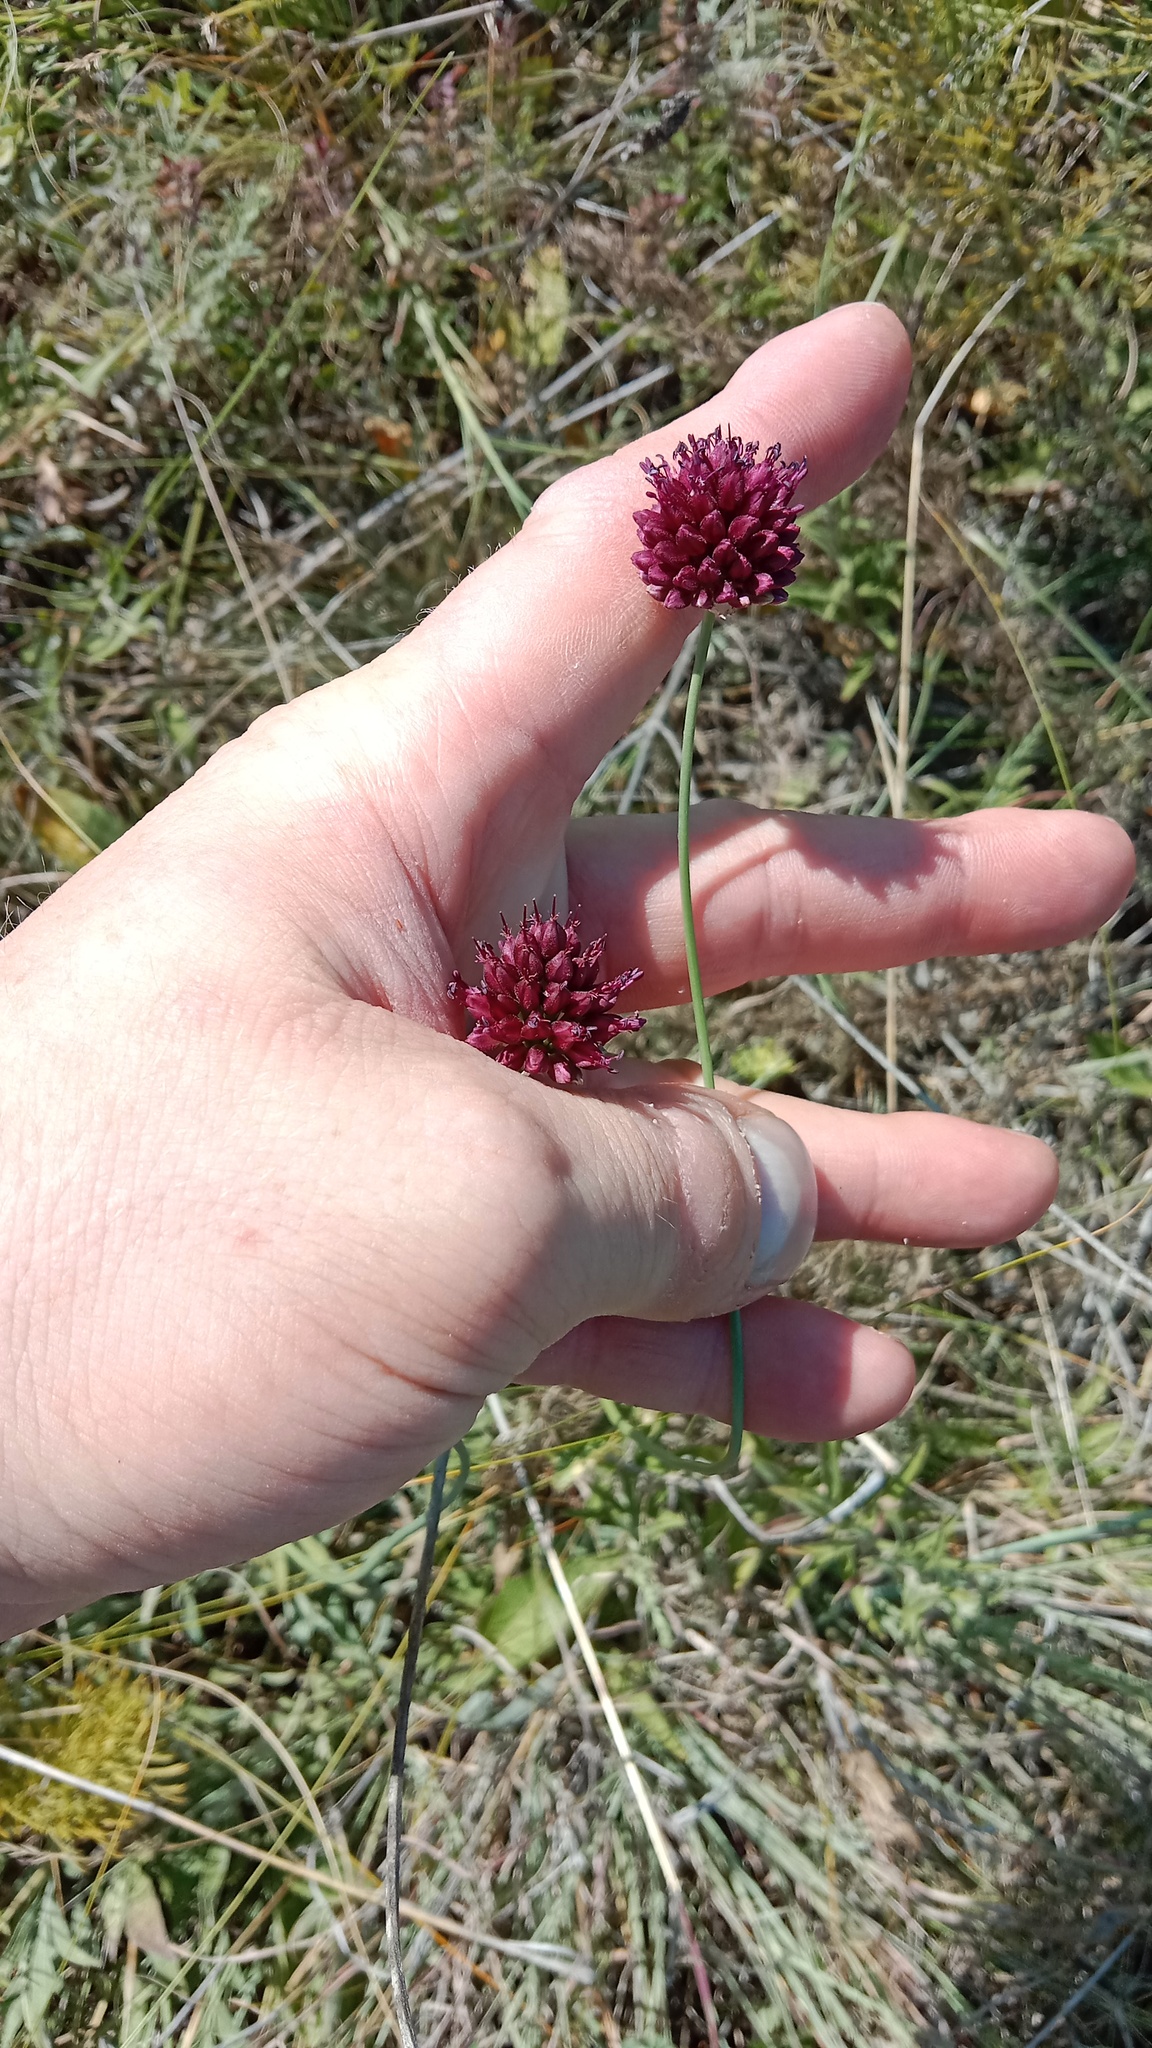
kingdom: Plantae
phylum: Tracheophyta
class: Liliopsida
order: Asparagales
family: Amaryllidaceae
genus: Allium
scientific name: Allium sphaerocephalon
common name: Round-headed leek
